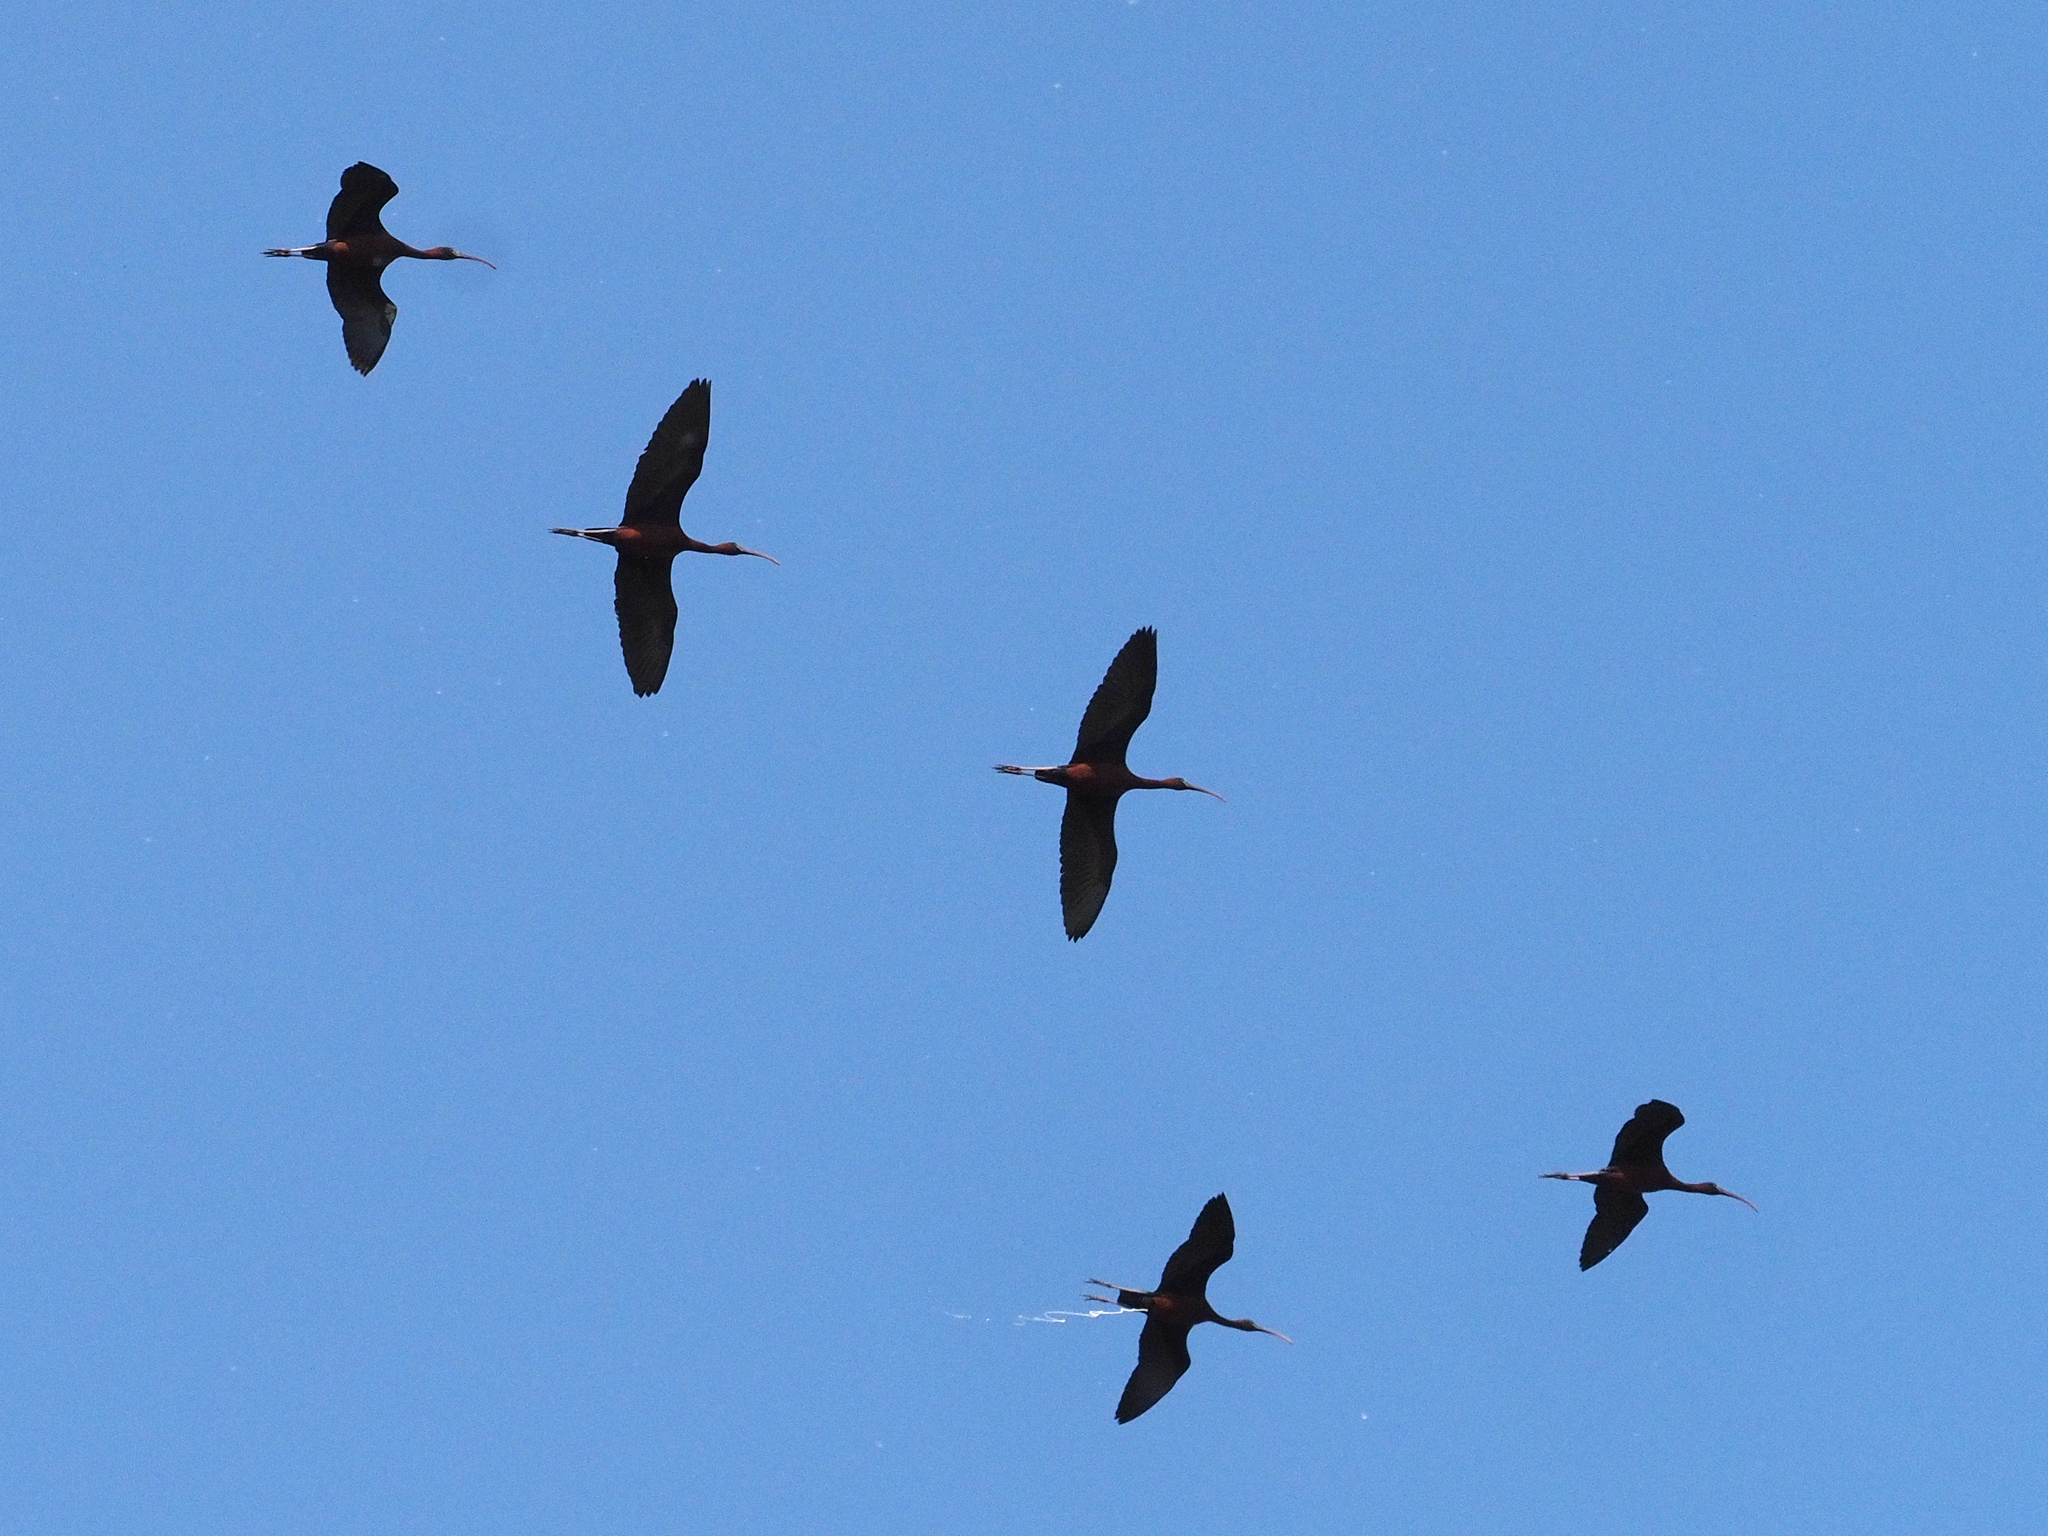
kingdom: Animalia
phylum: Chordata
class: Aves
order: Pelecaniformes
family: Threskiornithidae
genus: Plegadis
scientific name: Plegadis falcinellus
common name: Glossy ibis
